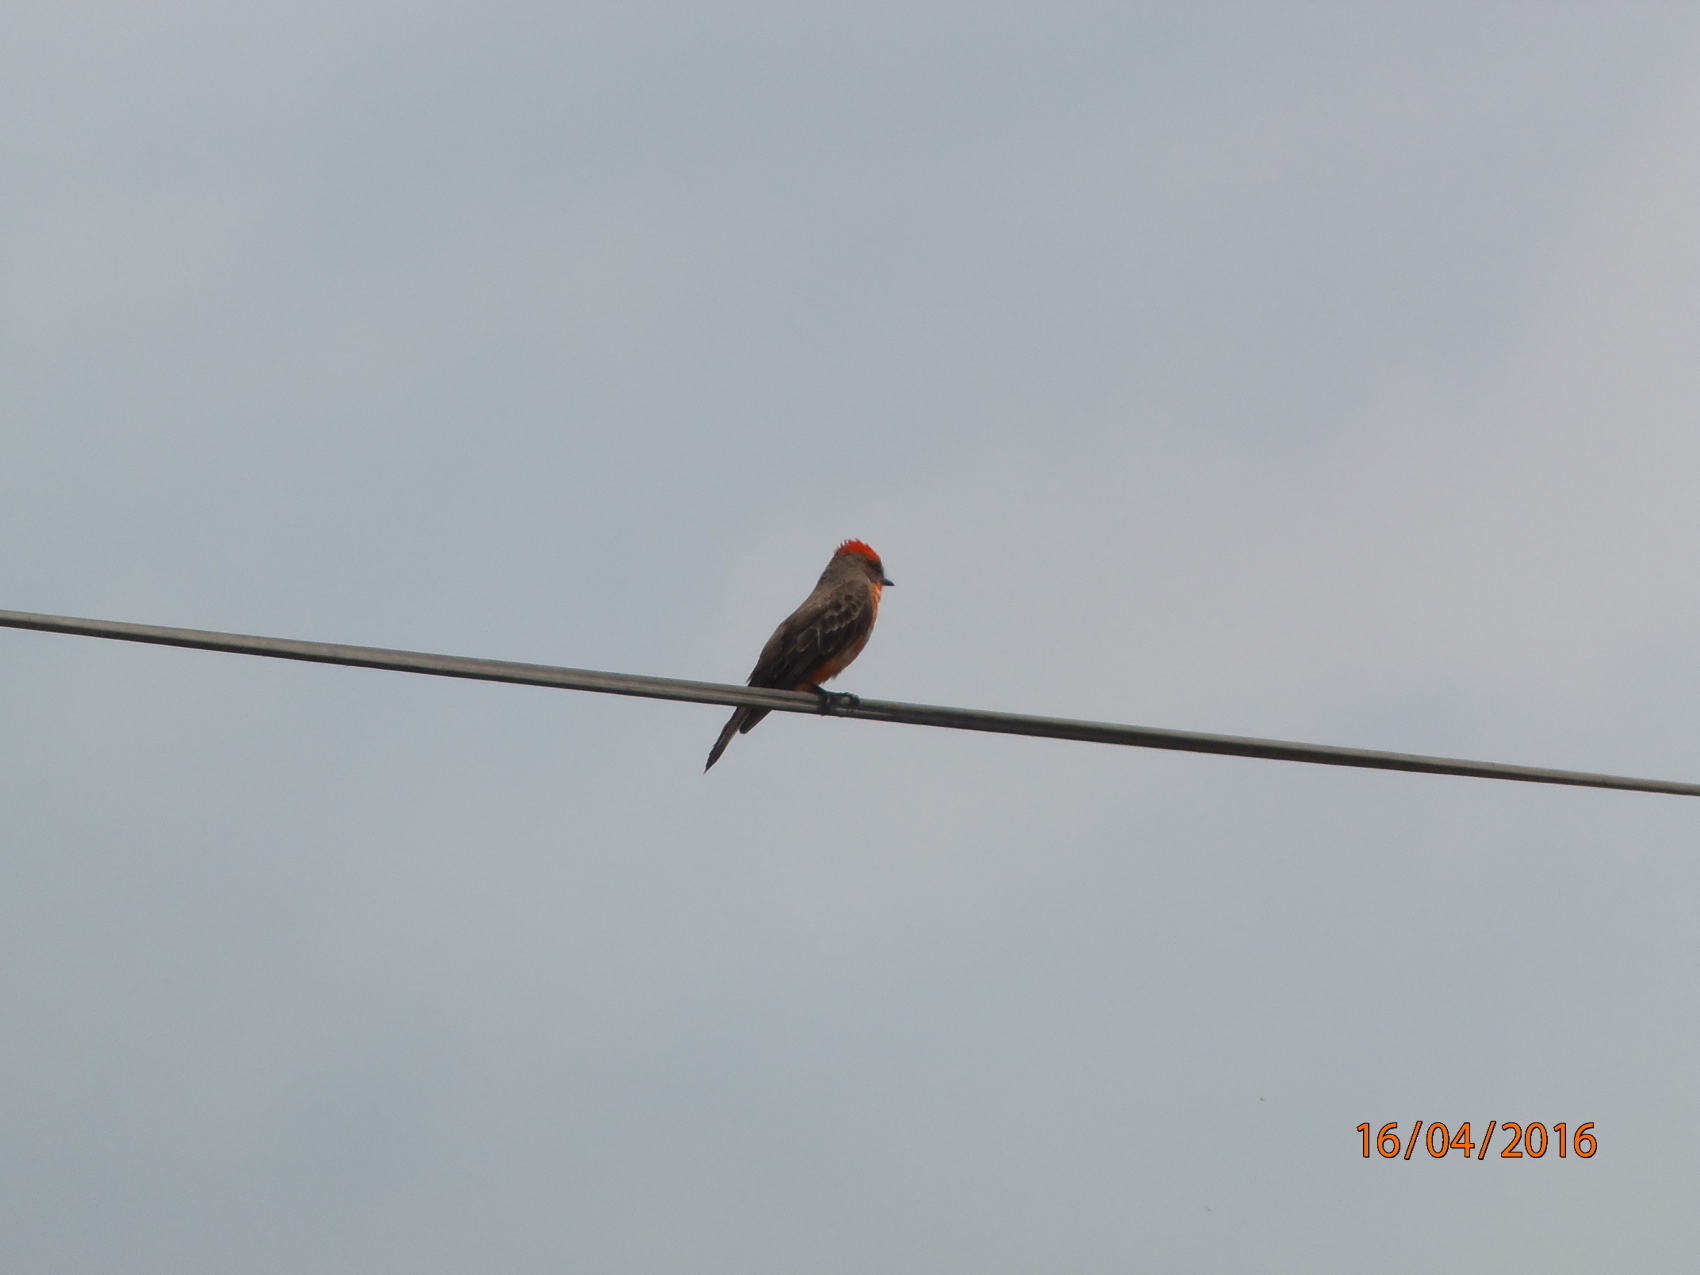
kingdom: Animalia
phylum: Chordata
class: Aves
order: Passeriformes
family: Tyrannidae
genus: Pyrocephalus
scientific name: Pyrocephalus rubinus
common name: Vermilion flycatcher
